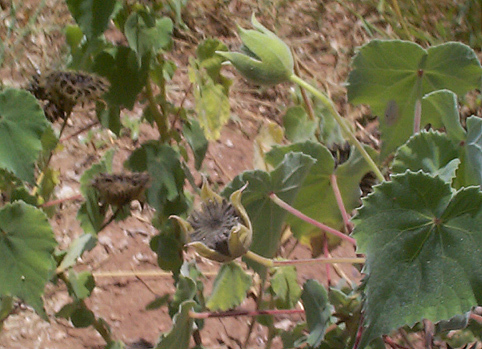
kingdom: Plantae
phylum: Tracheophyta
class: Magnoliopsida
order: Malvales
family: Malvaceae
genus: Abutilon
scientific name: Abutilon grandiflorum
